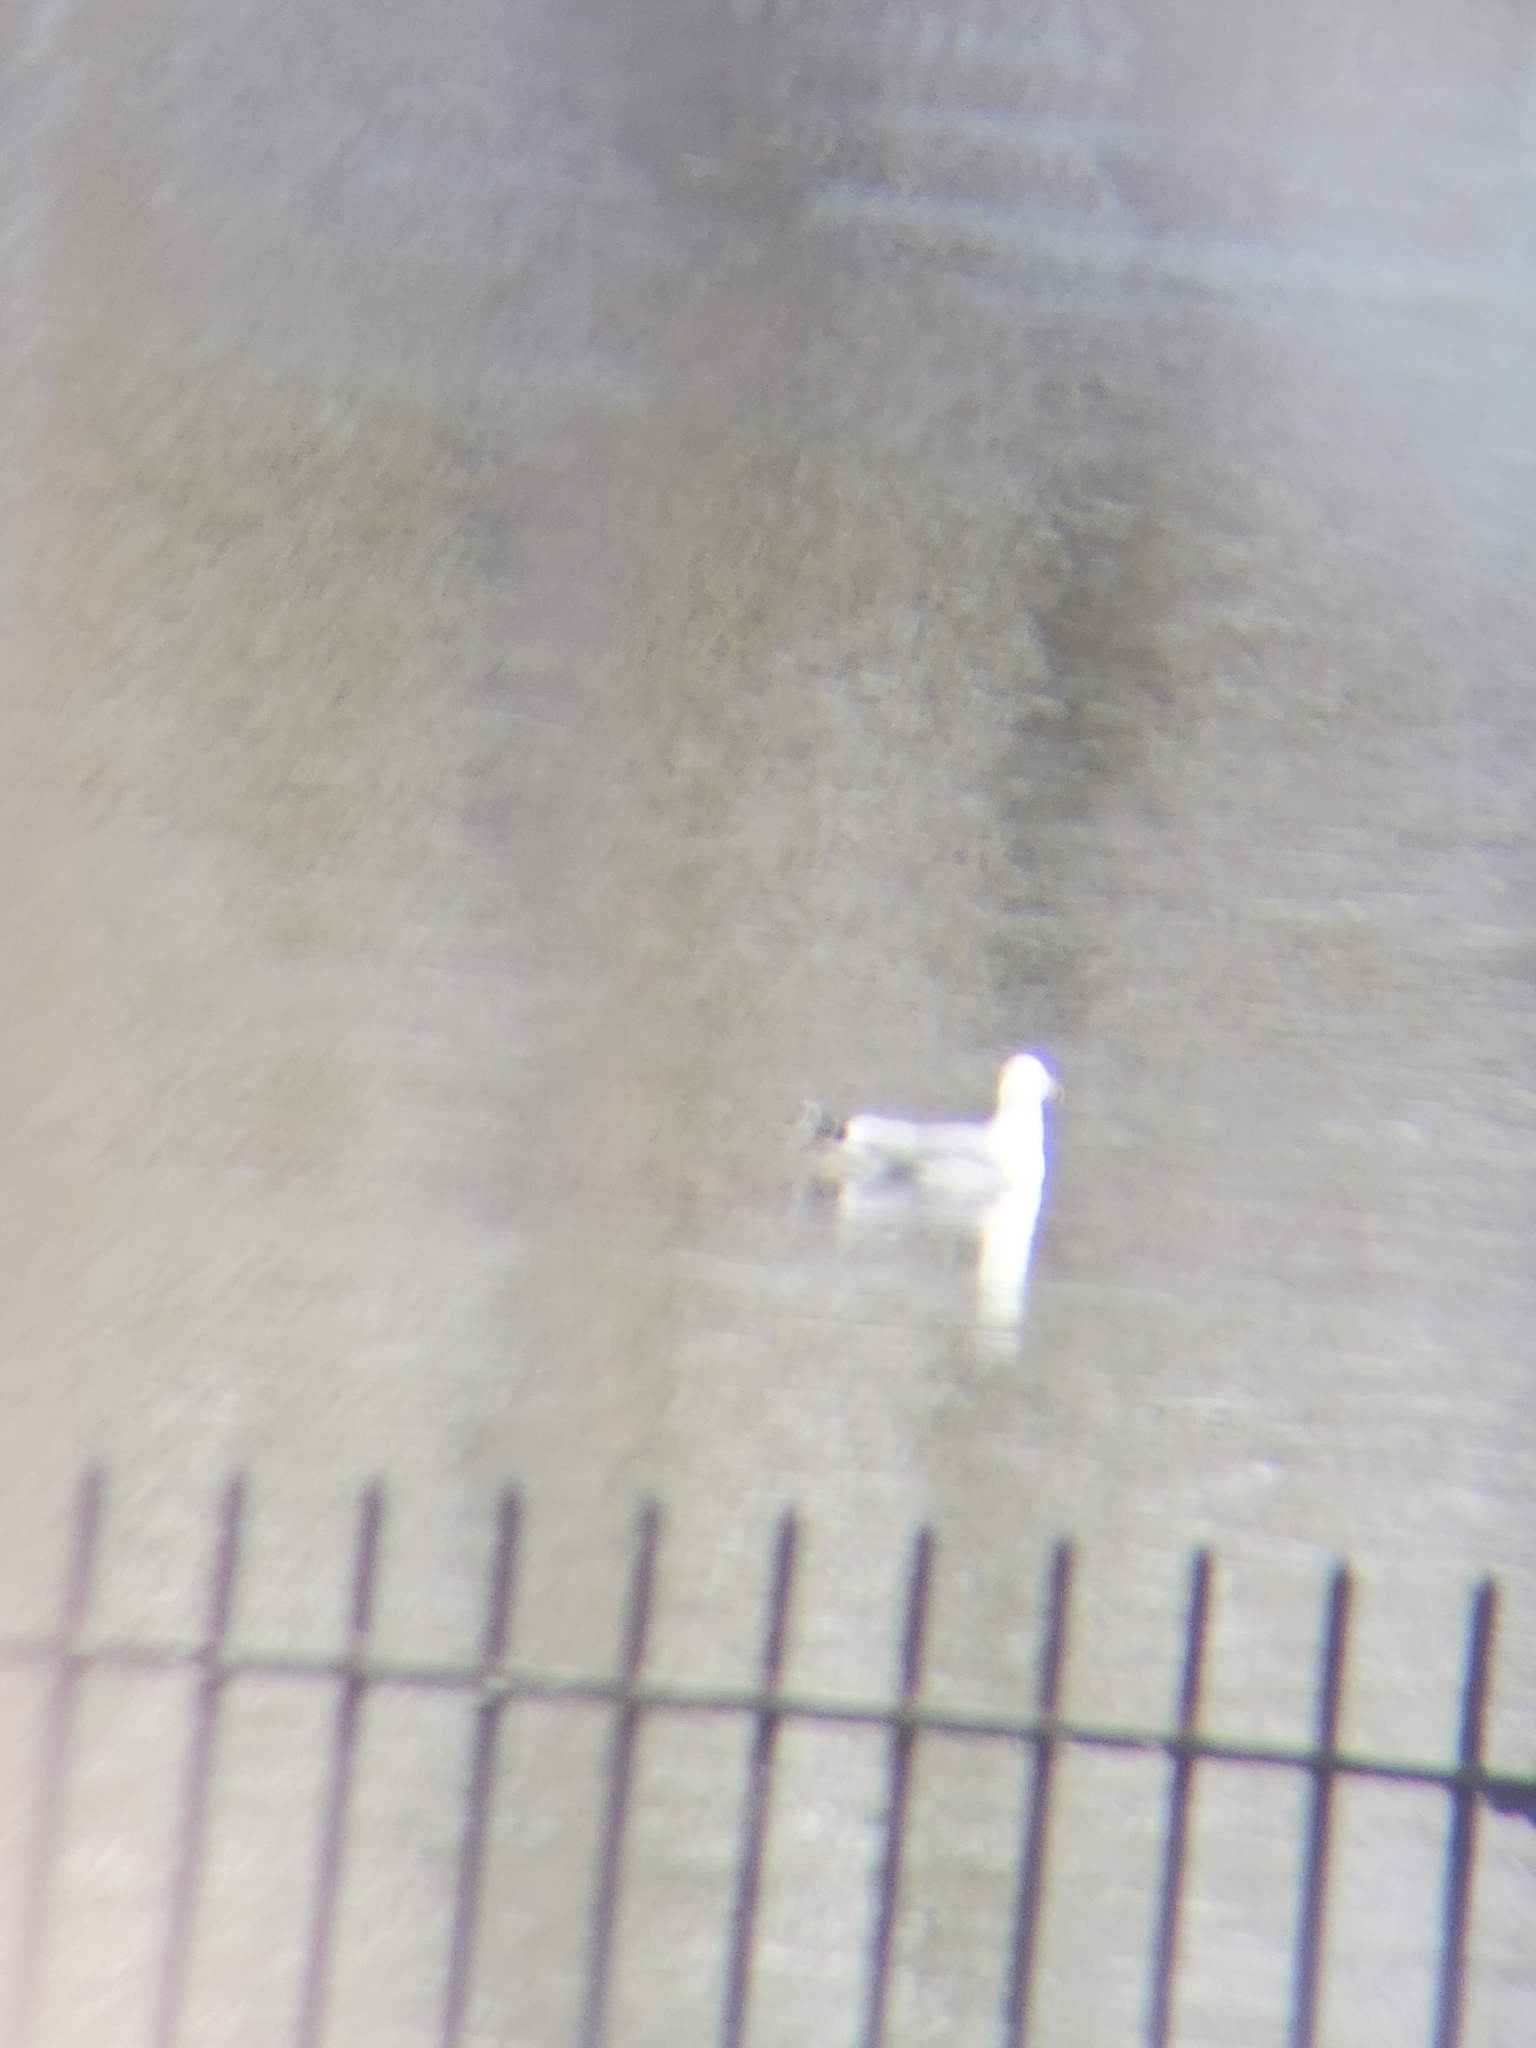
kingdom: Animalia
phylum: Chordata
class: Aves
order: Charadriiformes
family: Laridae
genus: Larus
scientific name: Larus argentatus
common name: Herring gull
